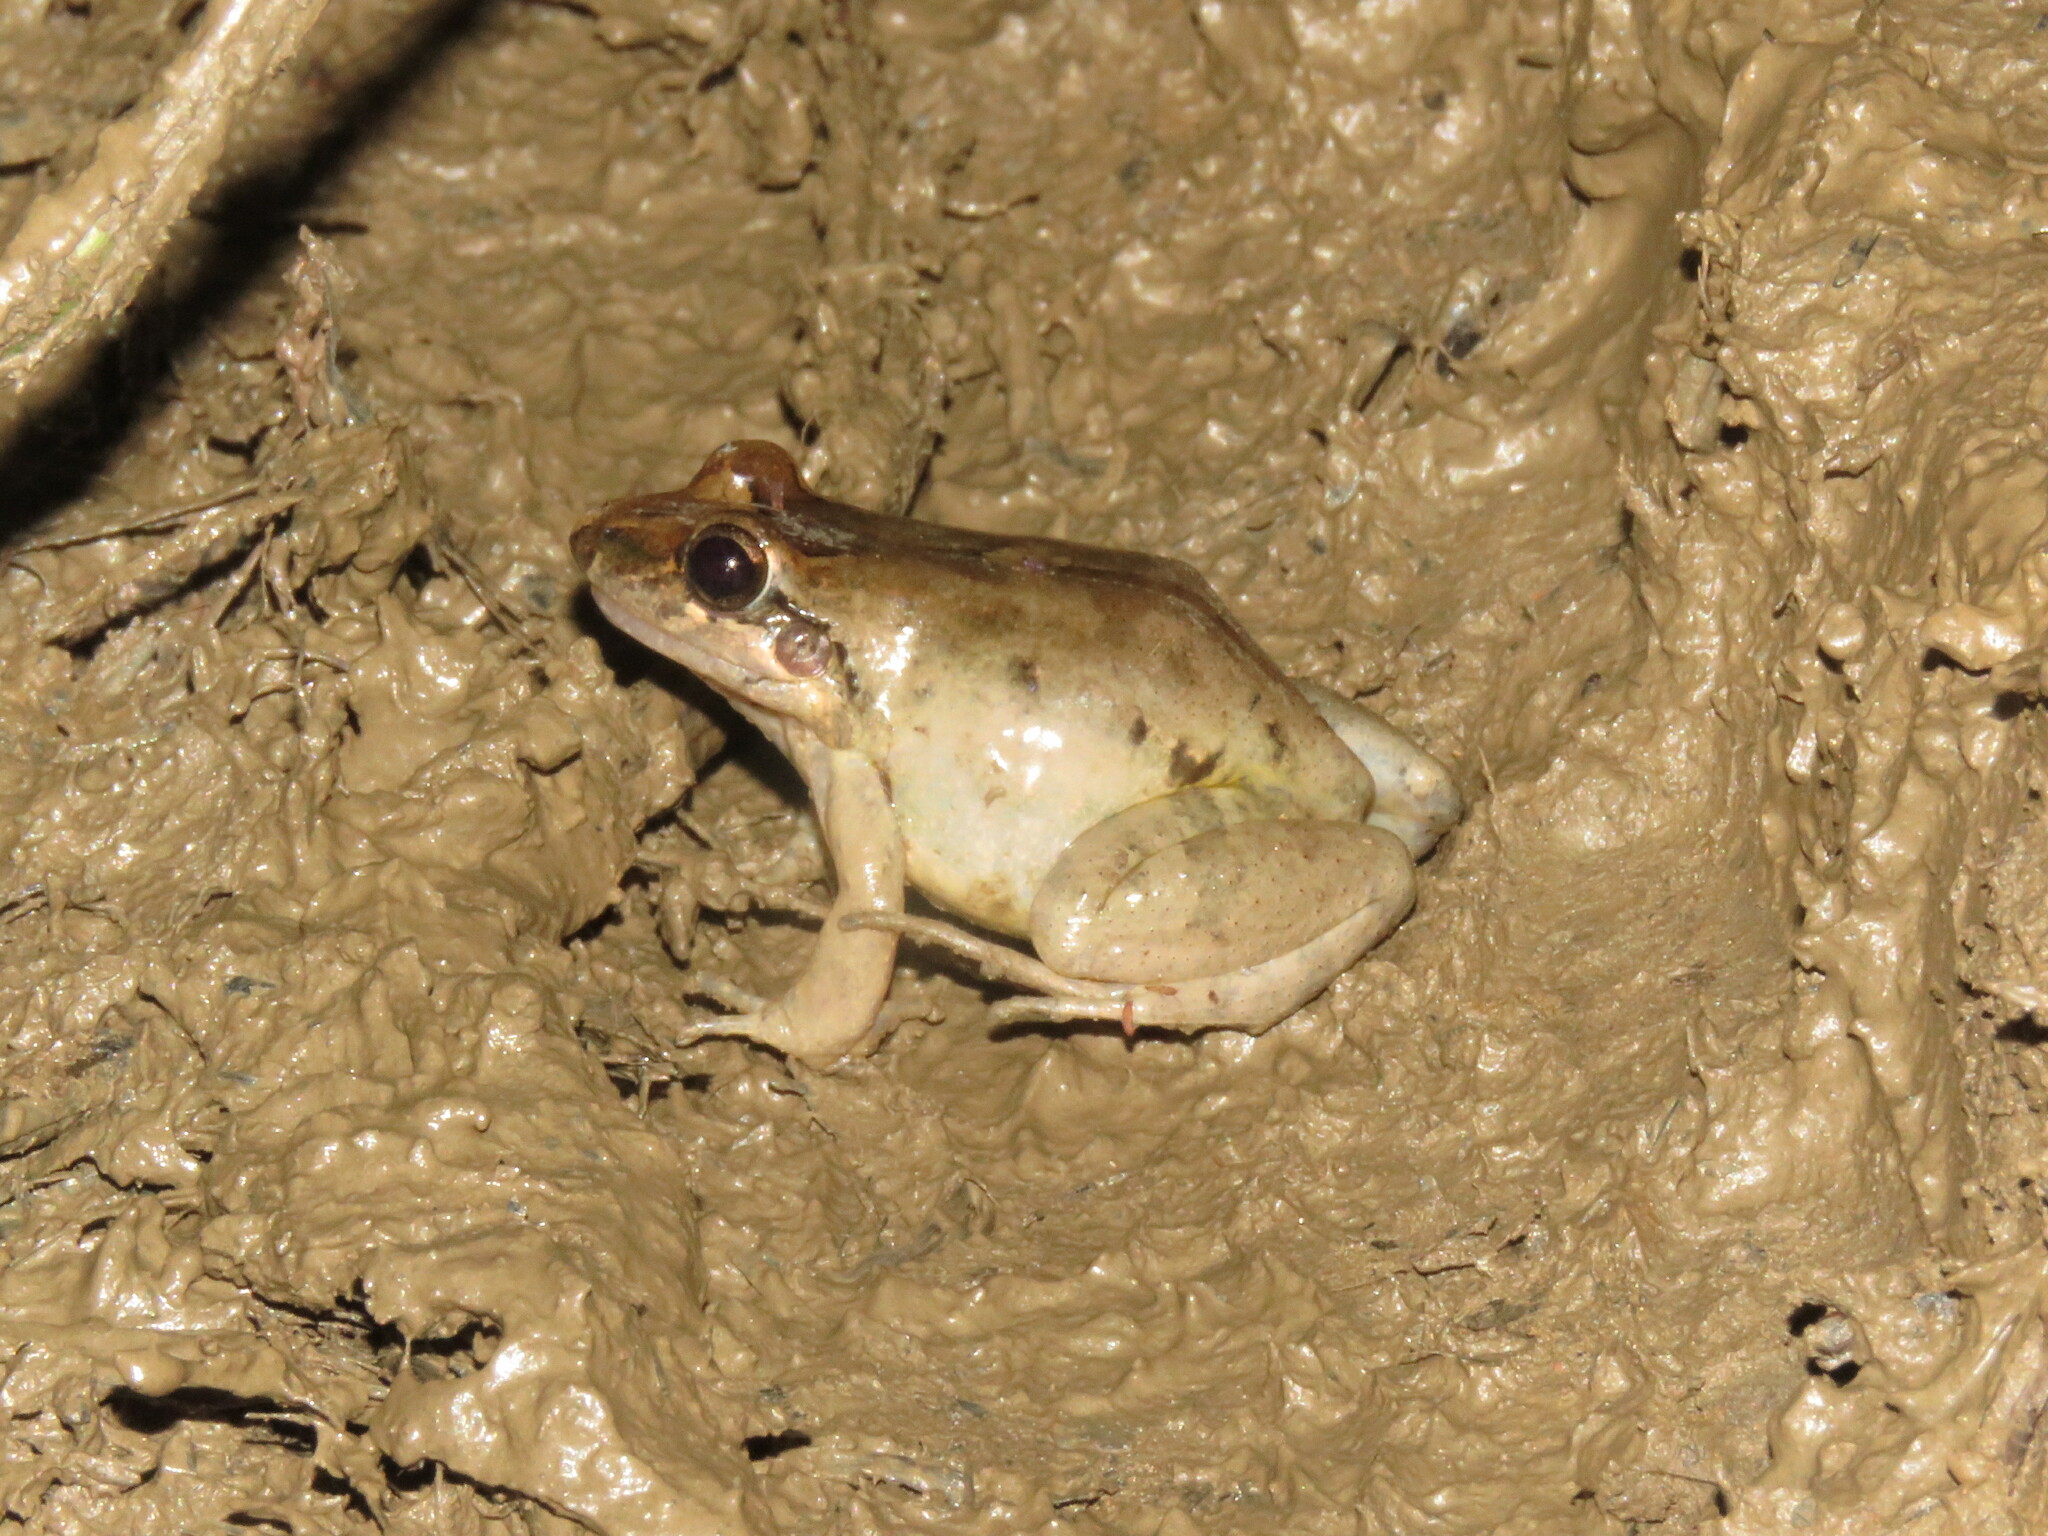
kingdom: Animalia
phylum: Chordata
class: Amphibia
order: Anura
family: Leptodactylidae
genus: Leptodactylus
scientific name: Leptodactylus petersii
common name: Peters' thin-toed frog
